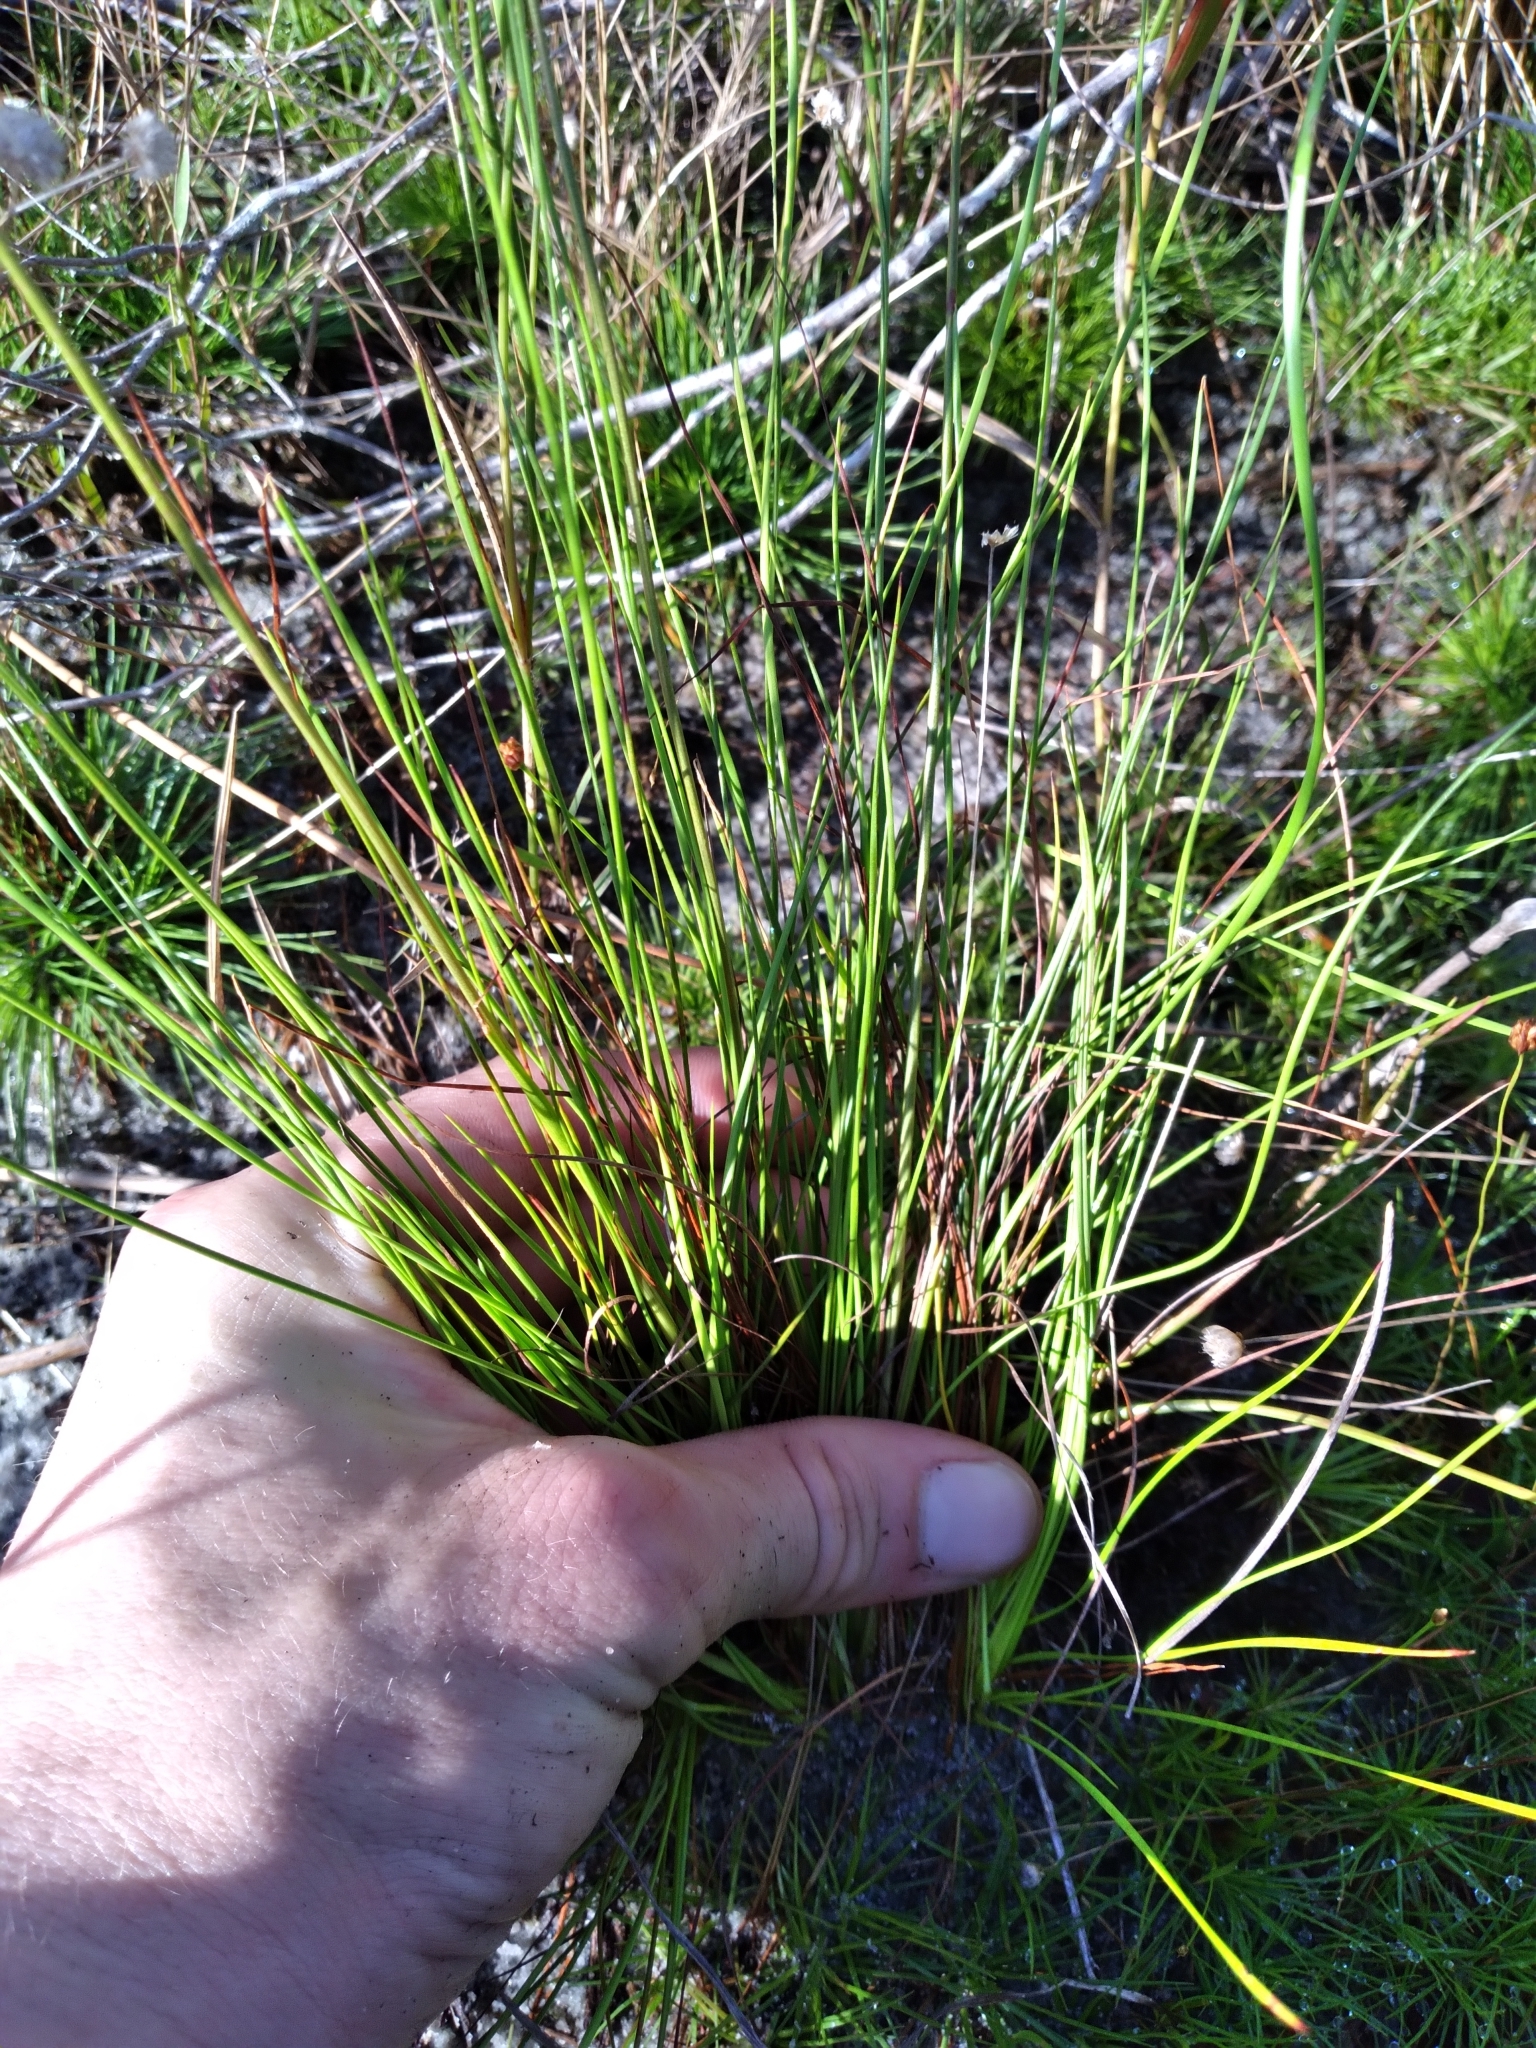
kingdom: Plantae
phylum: Tracheophyta
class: Liliopsida
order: Poales
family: Xyridaceae
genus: Xyris
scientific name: Xyris stenotera
